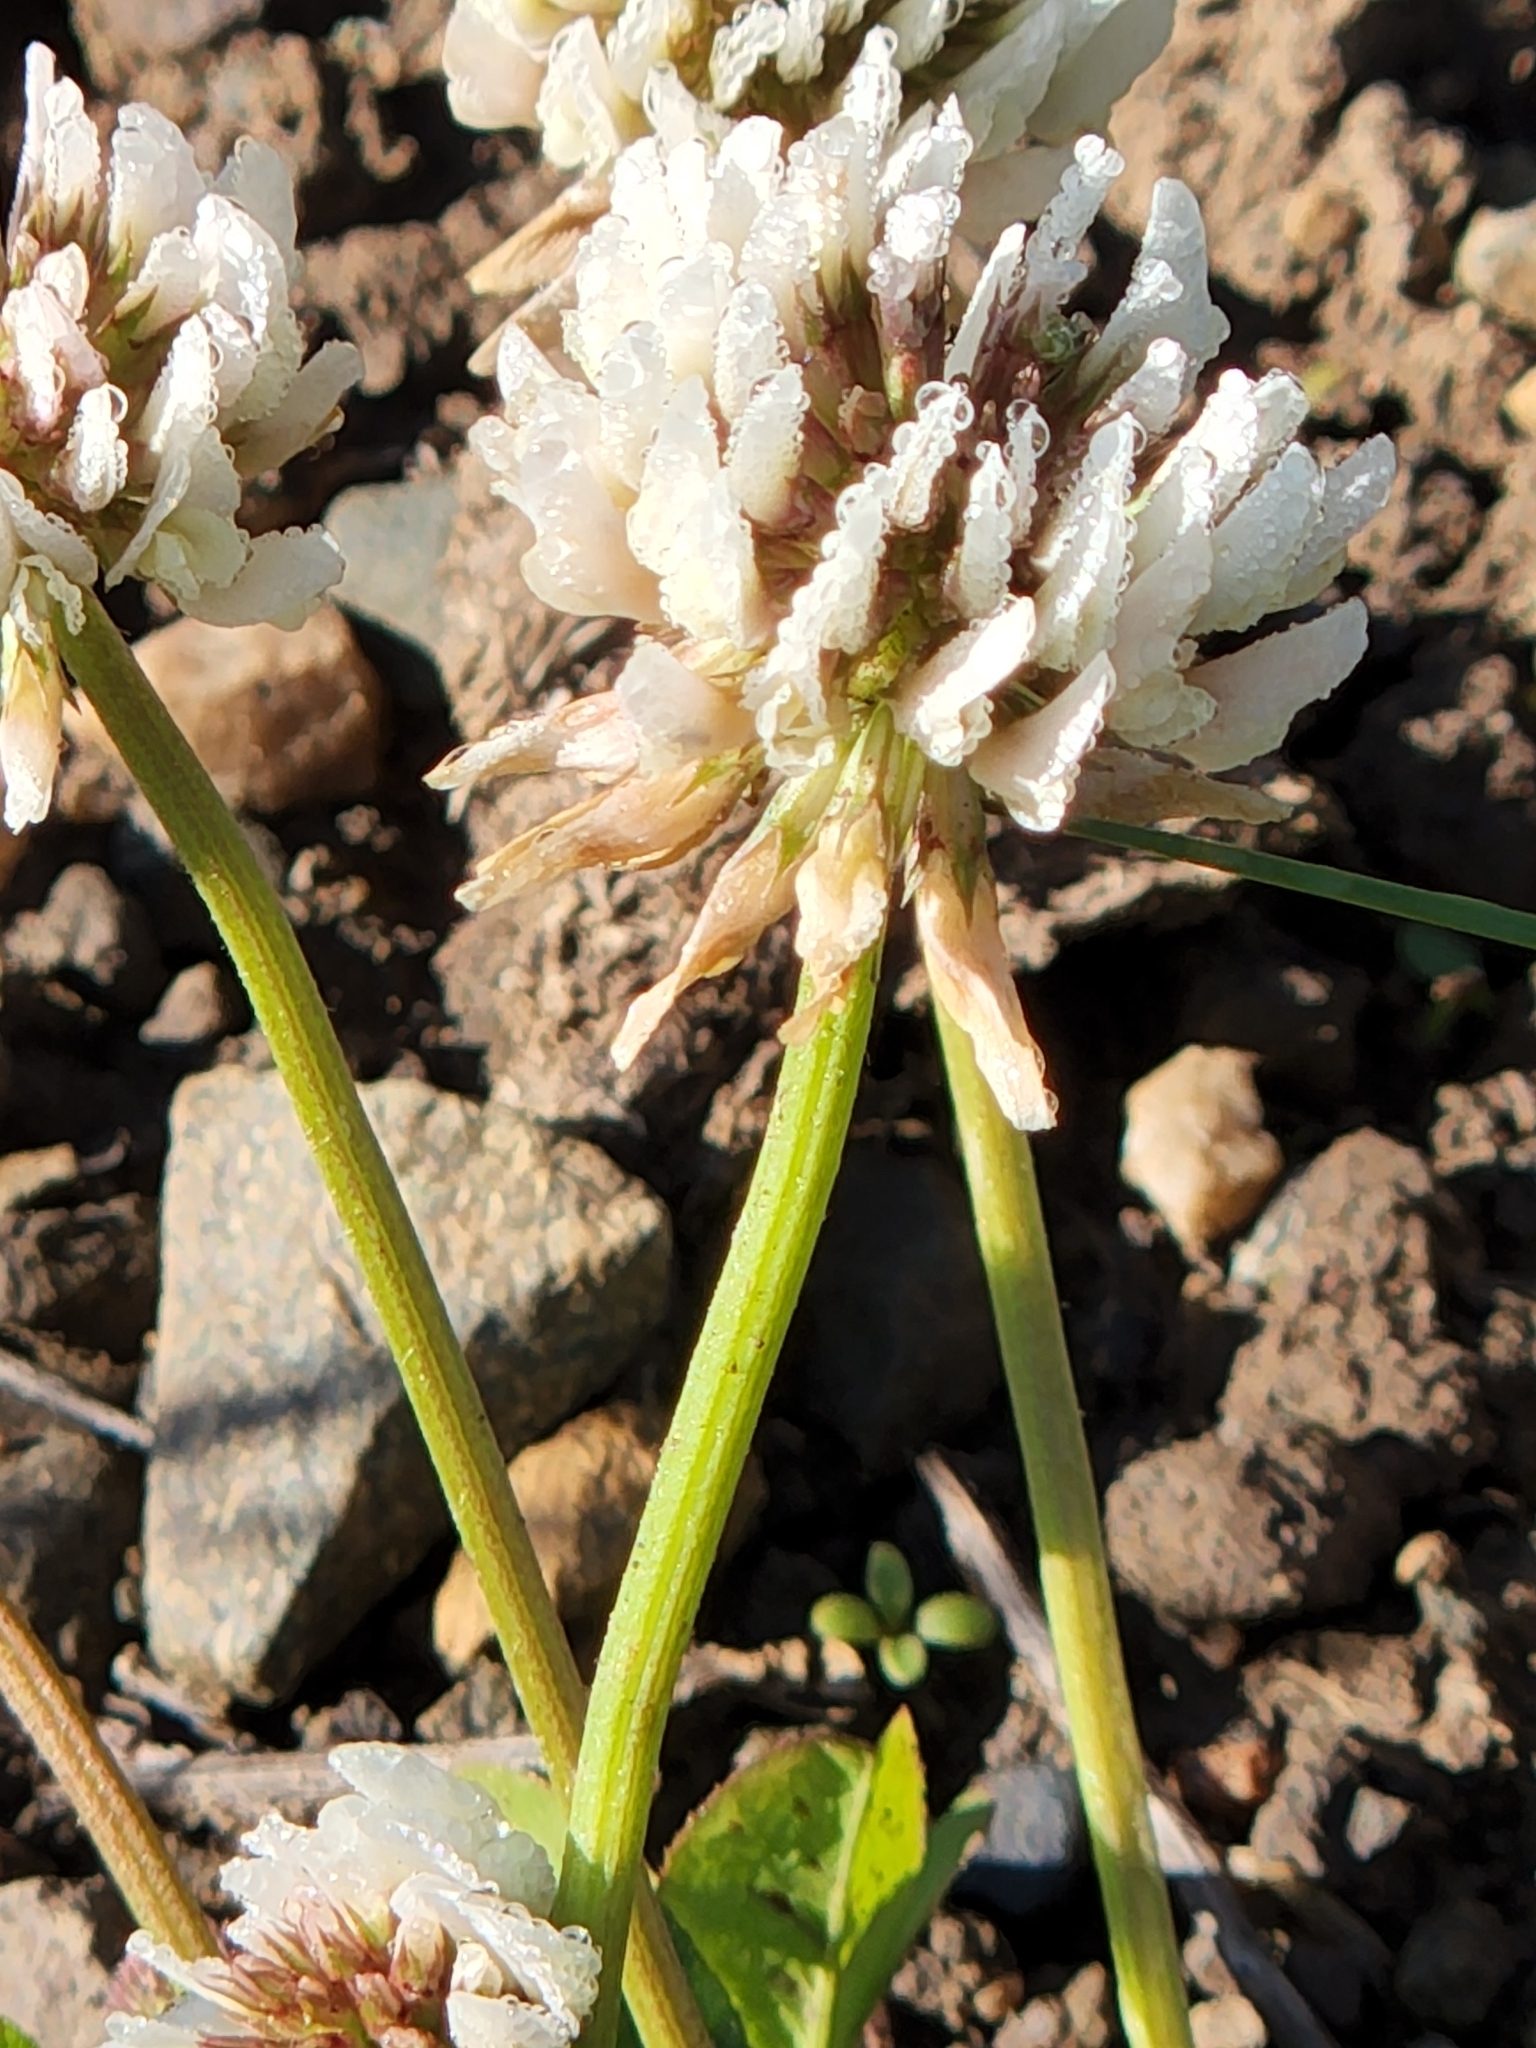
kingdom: Plantae
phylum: Tracheophyta
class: Magnoliopsida
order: Fabales
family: Fabaceae
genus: Trifolium
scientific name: Trifolium repens
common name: White clover
